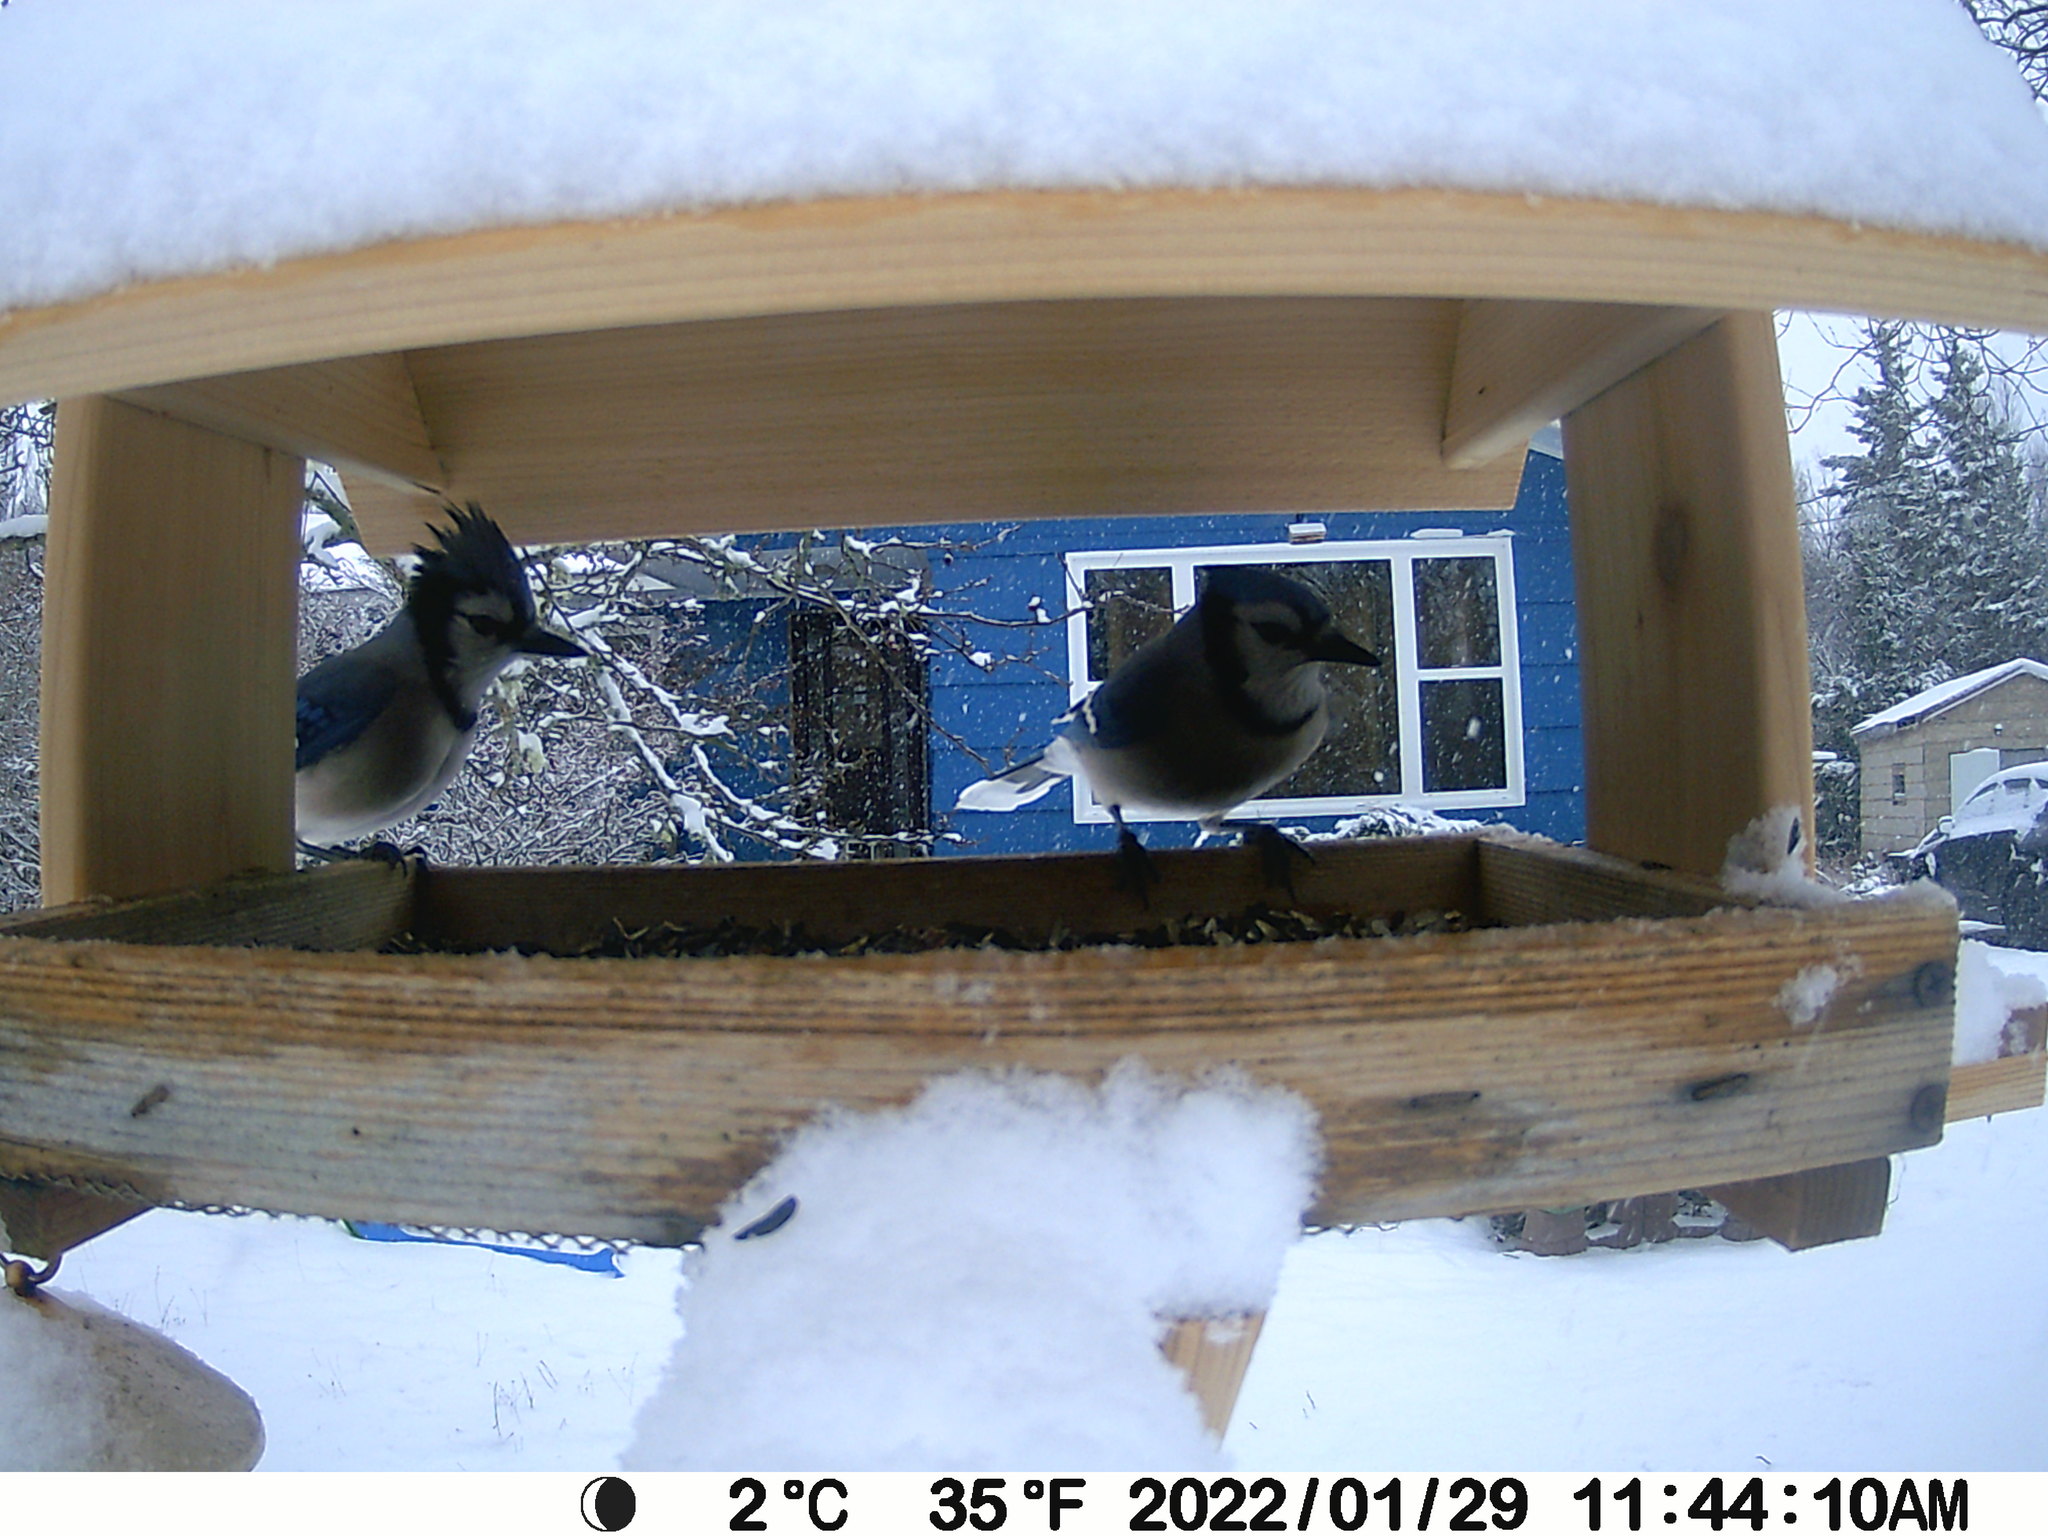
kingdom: Animalia
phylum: Chordata
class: Aves
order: Passeriformes
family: Corvidae
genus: Cyanocitta
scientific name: Cyanocitta cristata
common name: Blue jay
